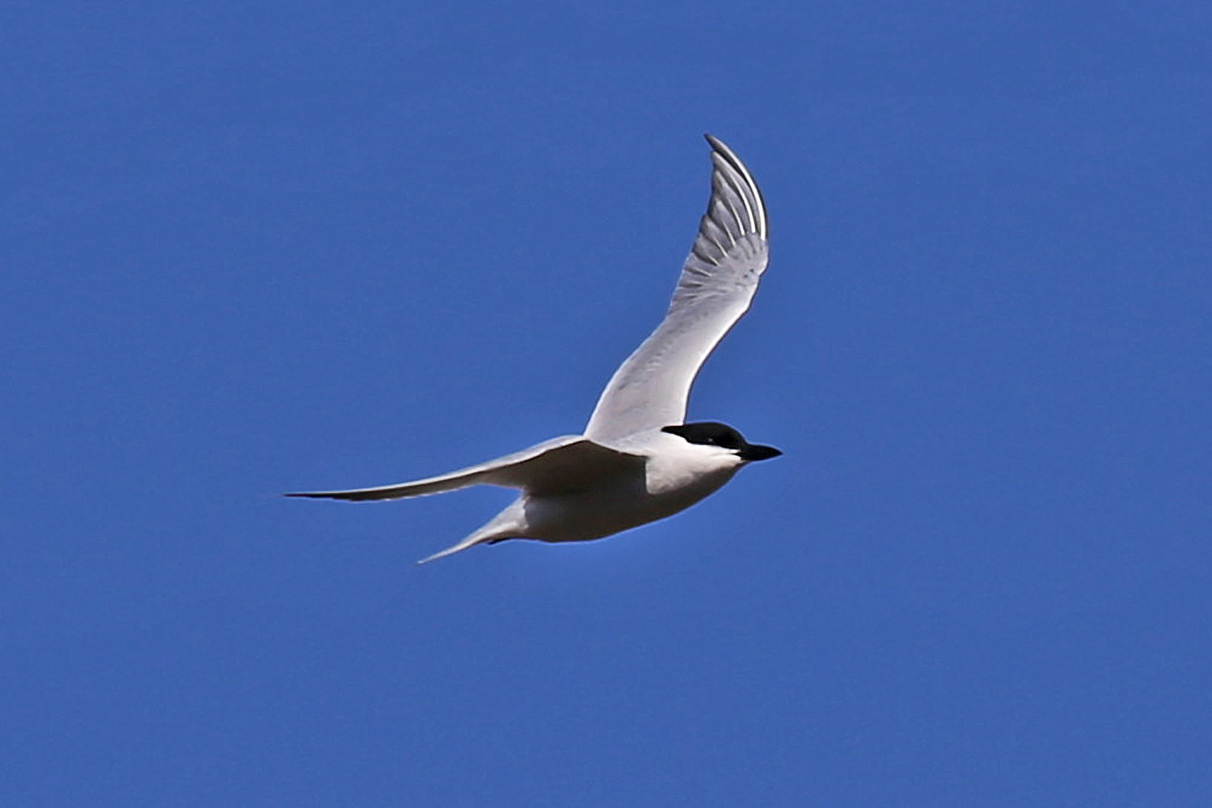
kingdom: Animalia
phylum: Chordata
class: Aves
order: Charadriiformes
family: Laridae
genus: Gelochelidon
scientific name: Gelochelidon nilotica
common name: Gull-billed tern
